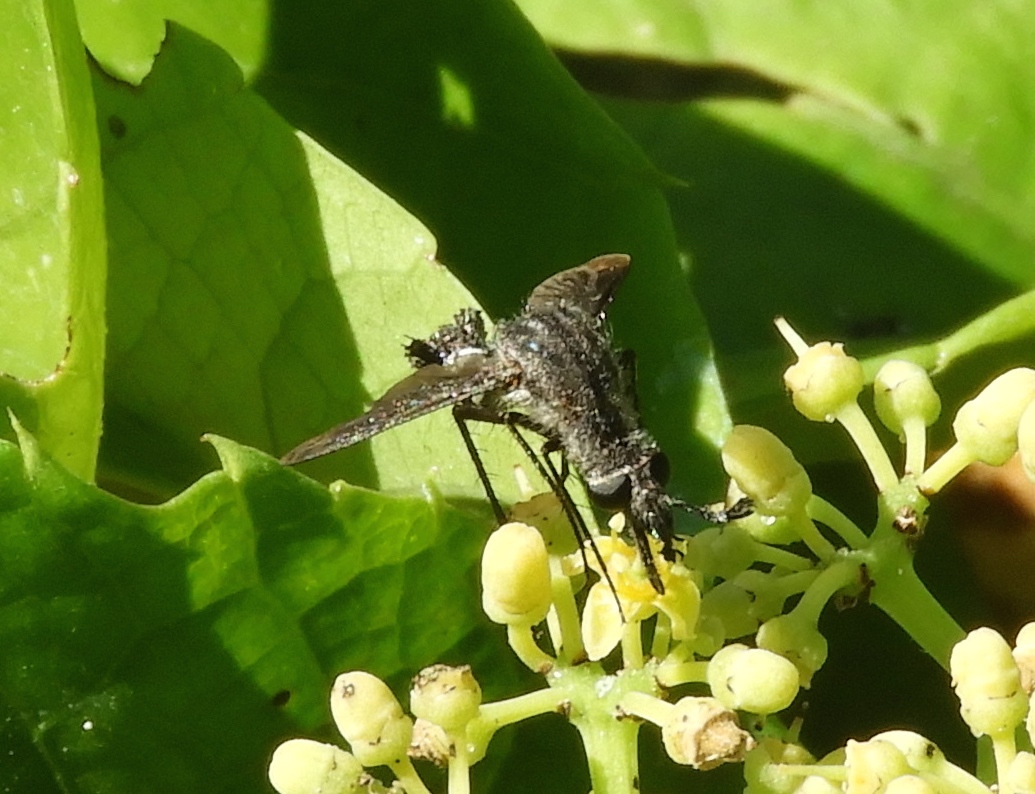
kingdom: Animalia
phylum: Arthropoda
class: Insecta
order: Diptera
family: Bombyliidae
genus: Lepidophora
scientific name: Lepidophora vetusta
